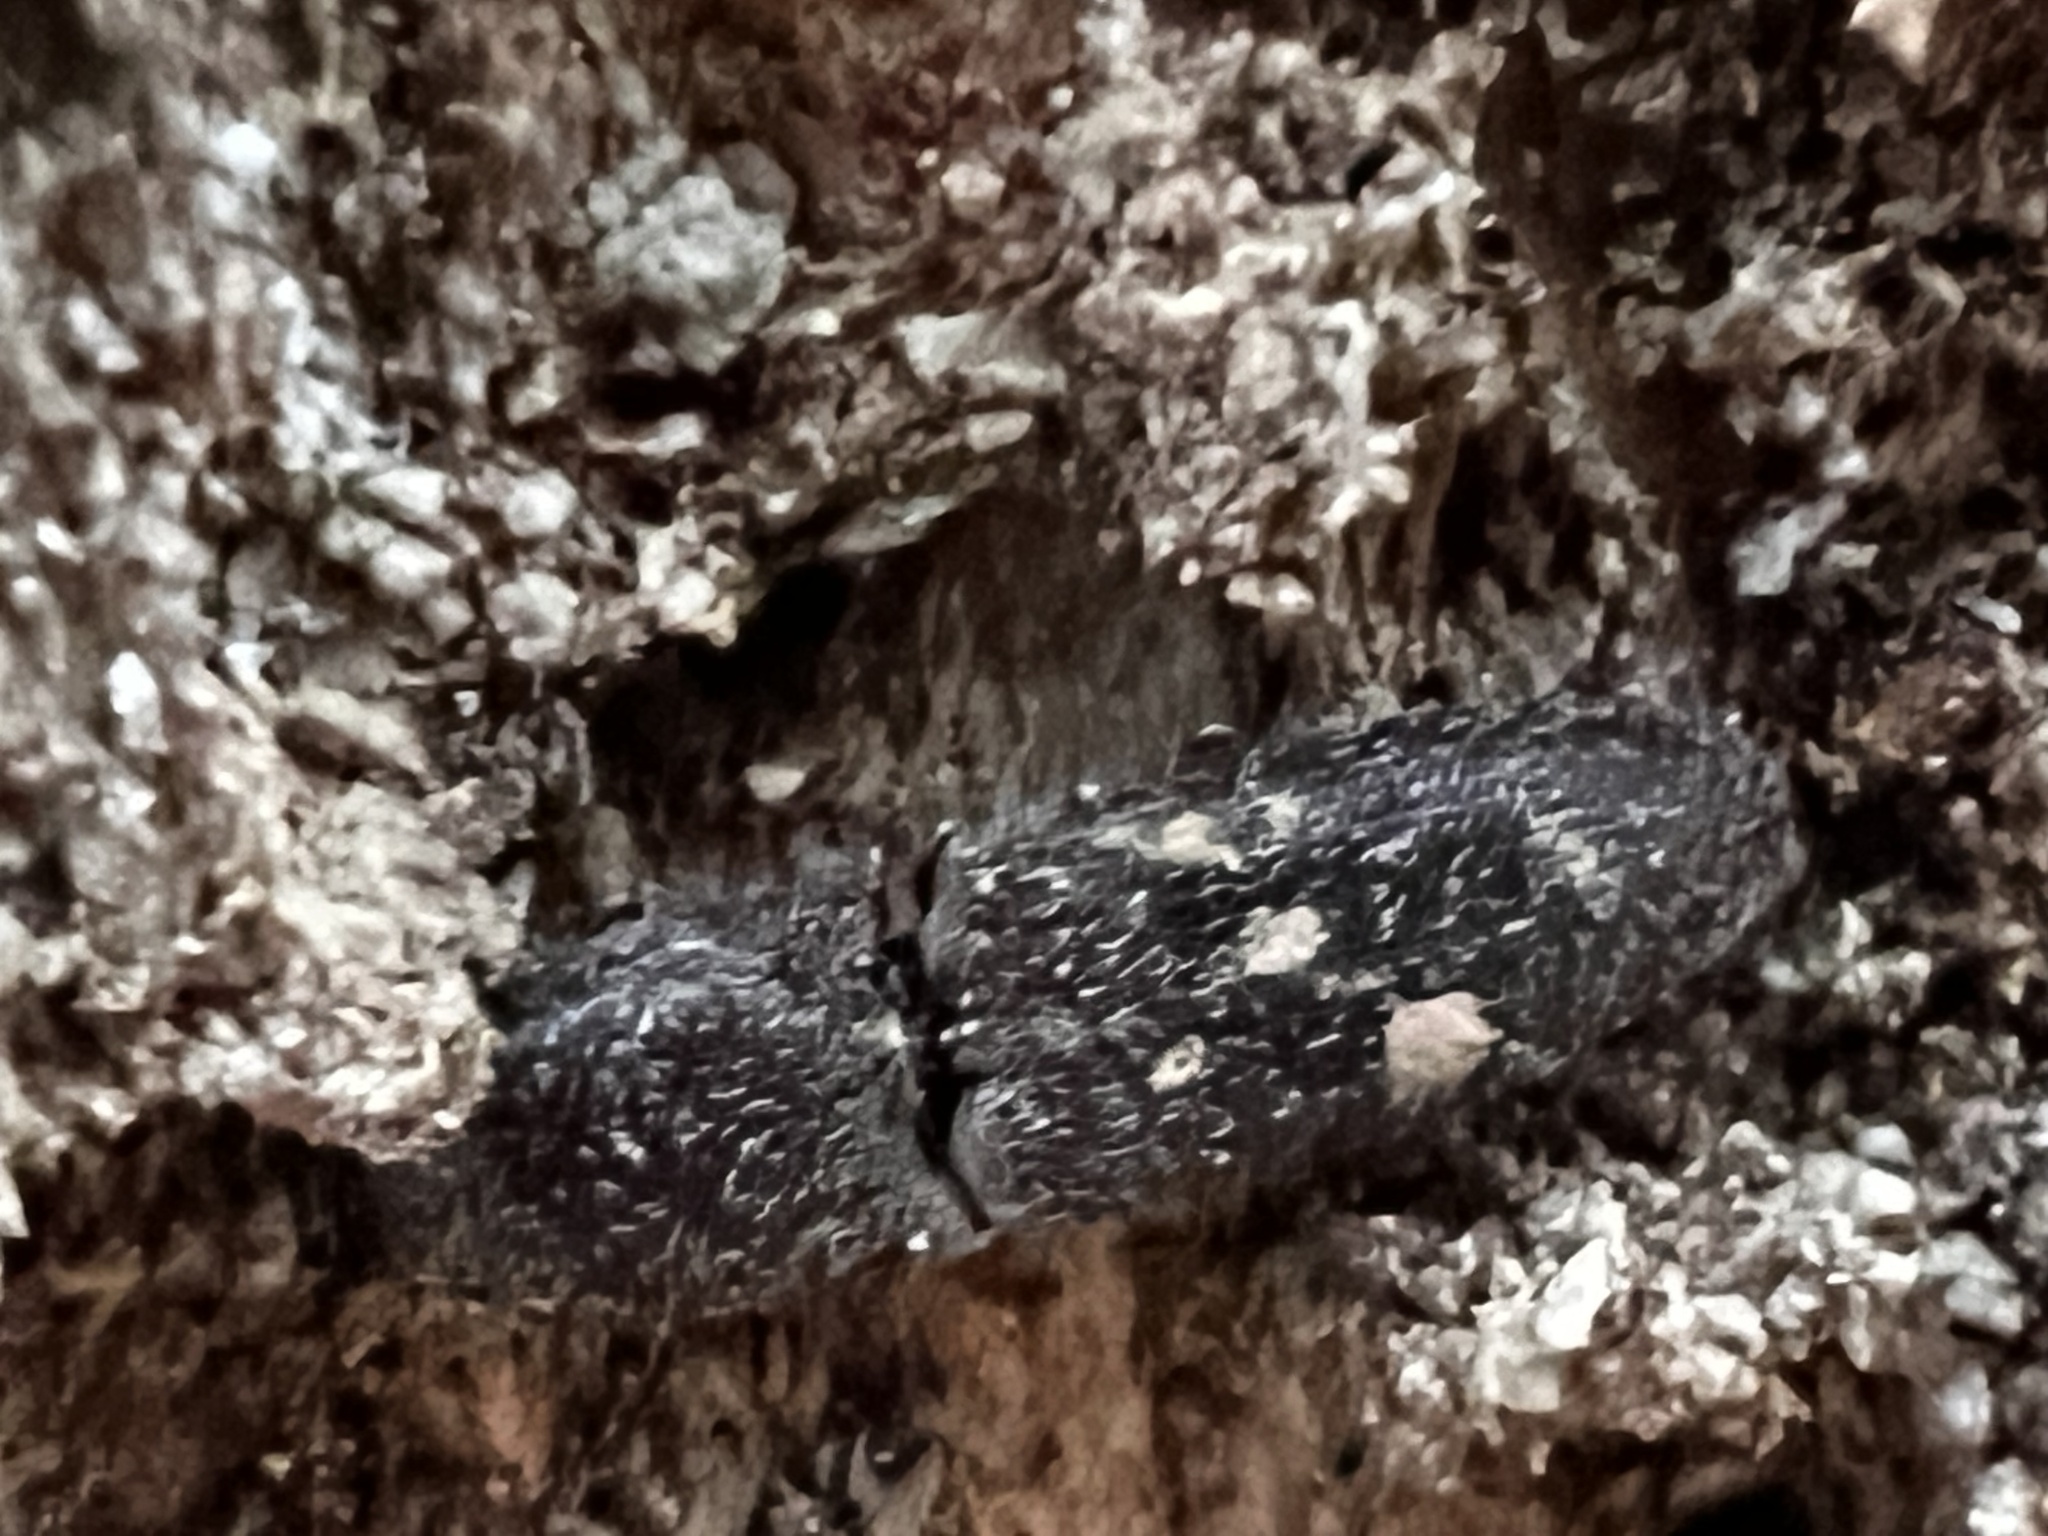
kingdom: Animalia
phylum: Arthropoda
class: Insecta
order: Coleoptera
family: Elateridae
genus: Lacon
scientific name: Lacon marmoratus
